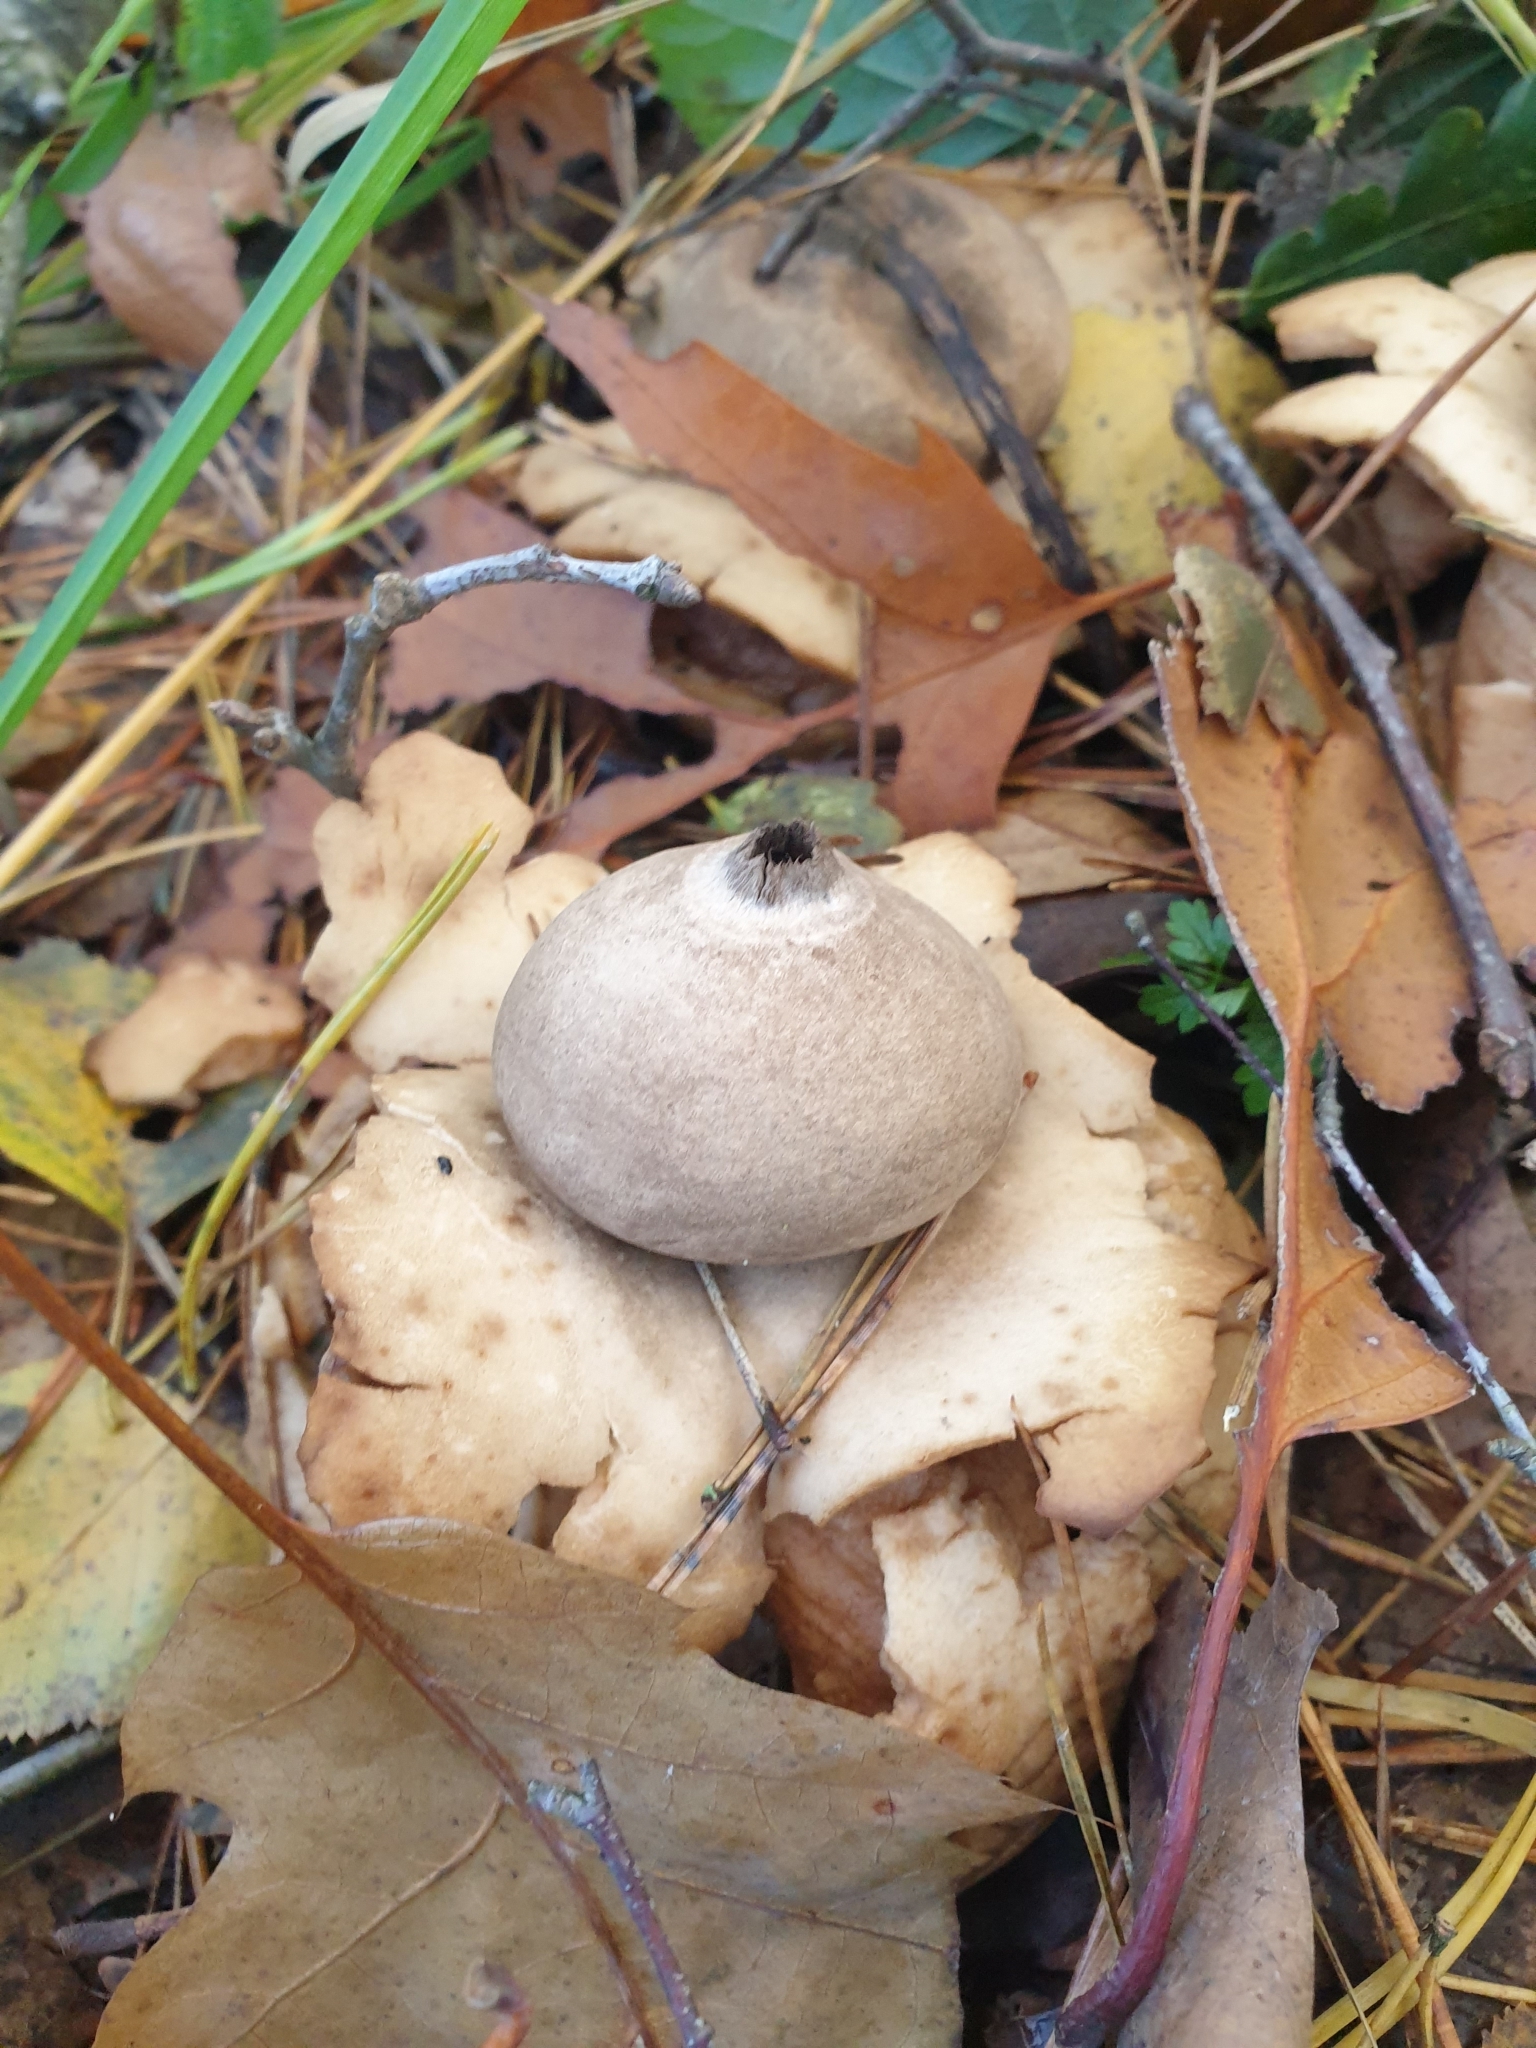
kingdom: Fungi
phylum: Basidiomycota
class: Agaricomycetes
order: Geastrales
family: Geastraceae
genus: Geastrum
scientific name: Geastrum triplex
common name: Collared earthstar
